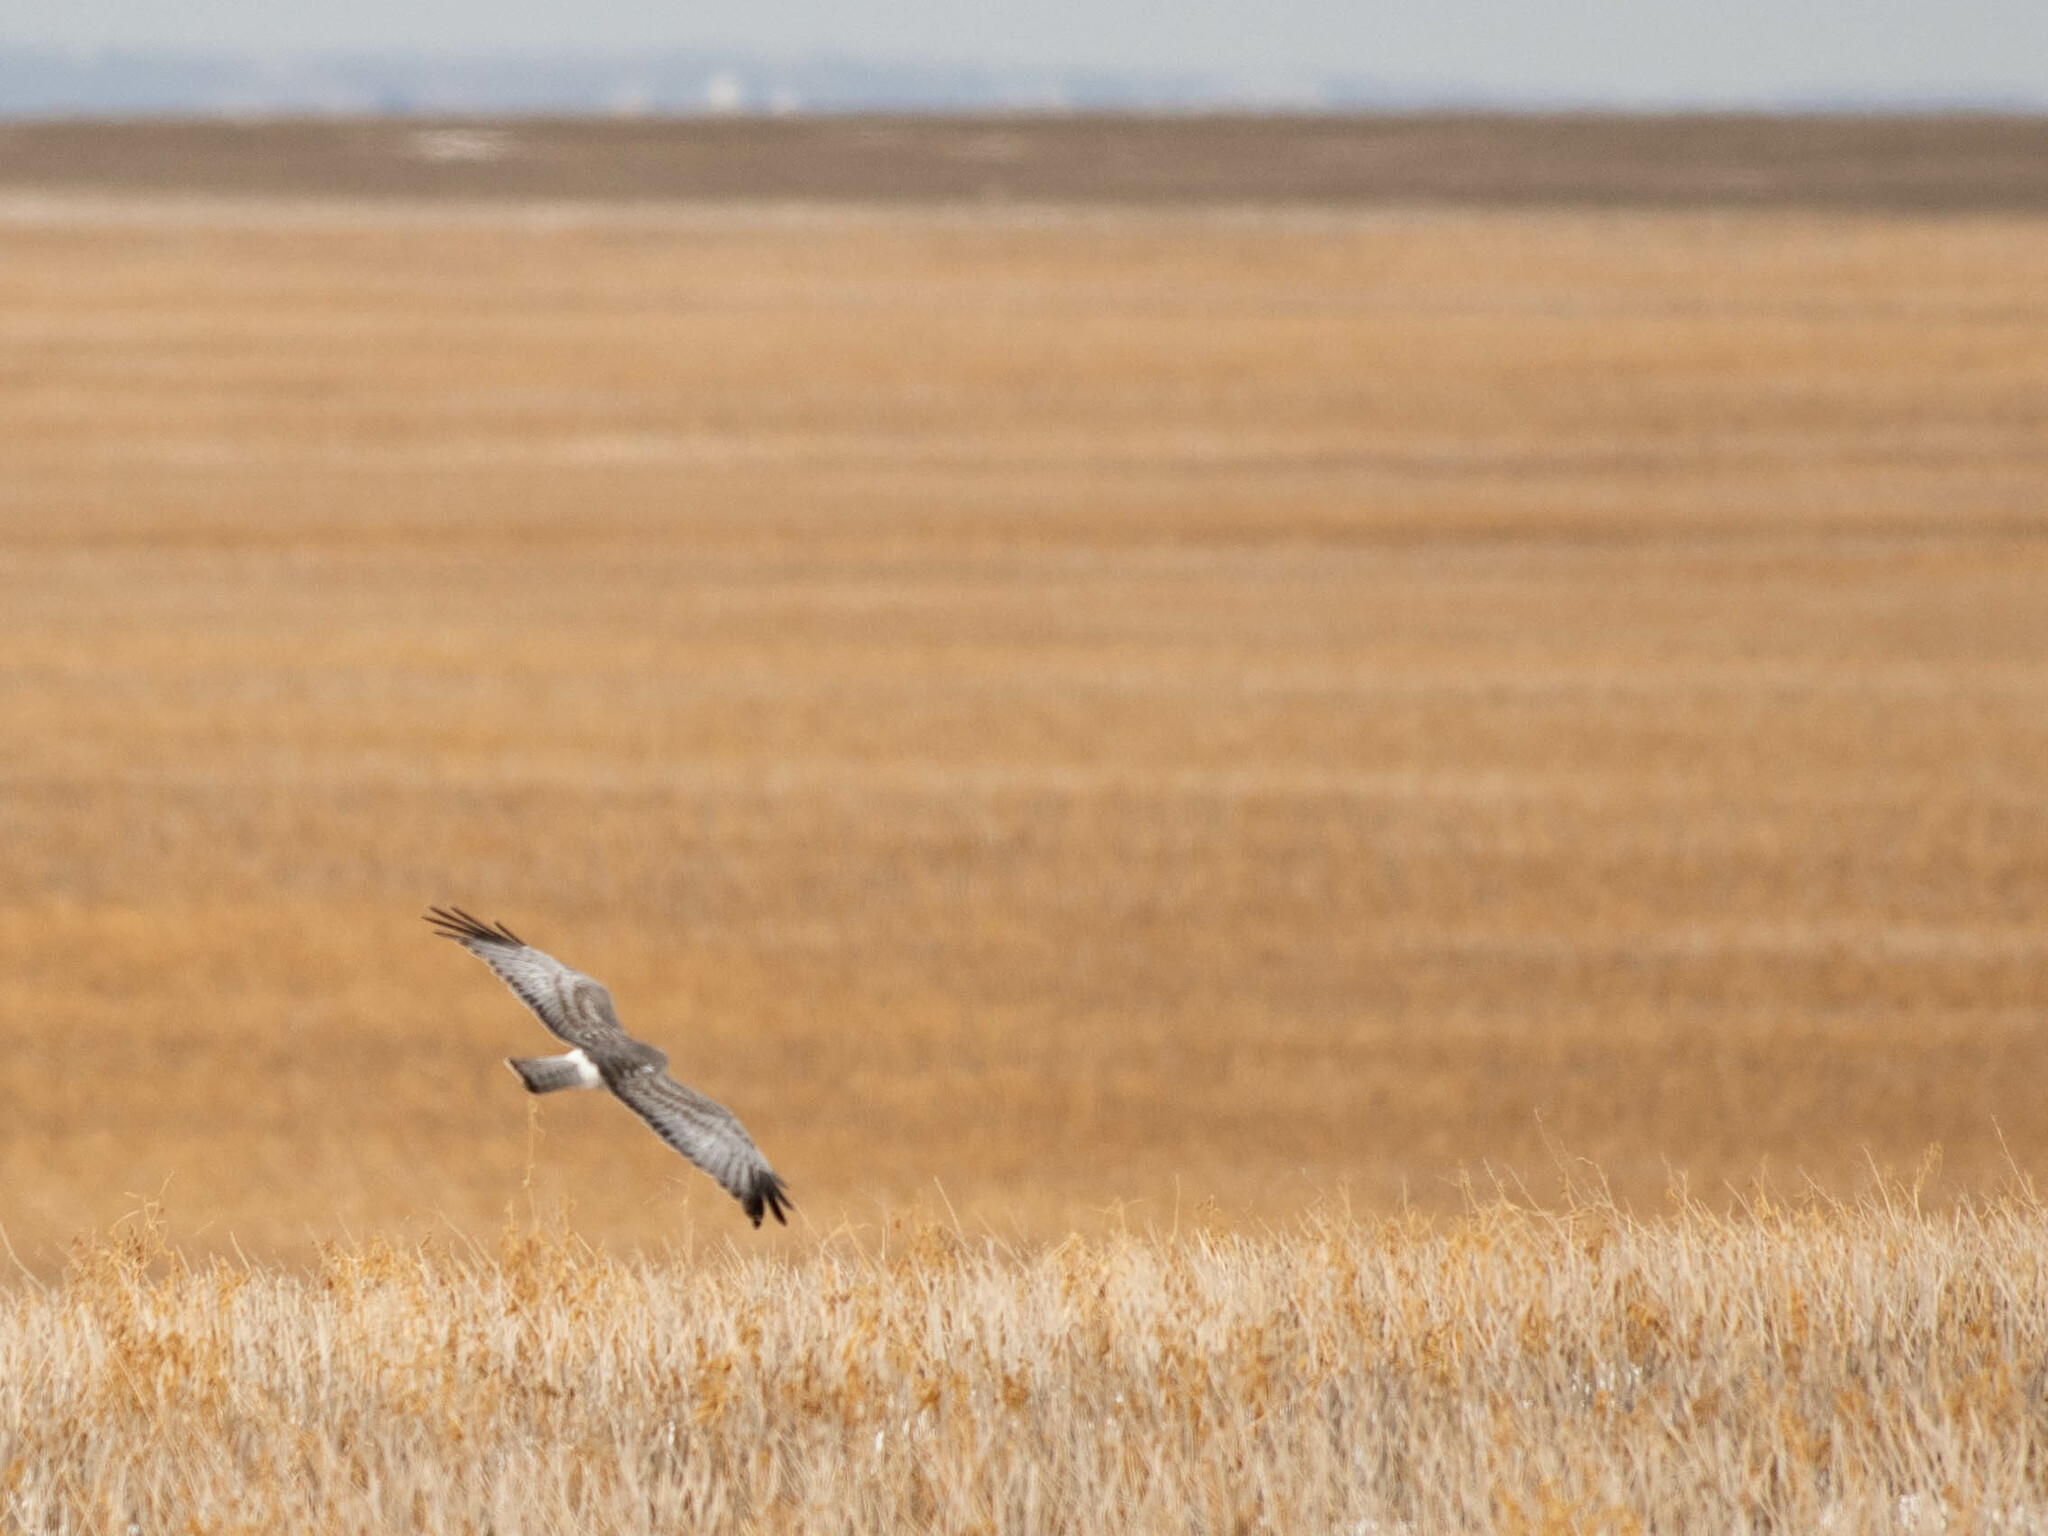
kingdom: Animalia
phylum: Chordata
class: Aves
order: Accipitriformes
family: Accipitridae
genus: Circus
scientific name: Circus cyaneus
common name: Hen harrier
